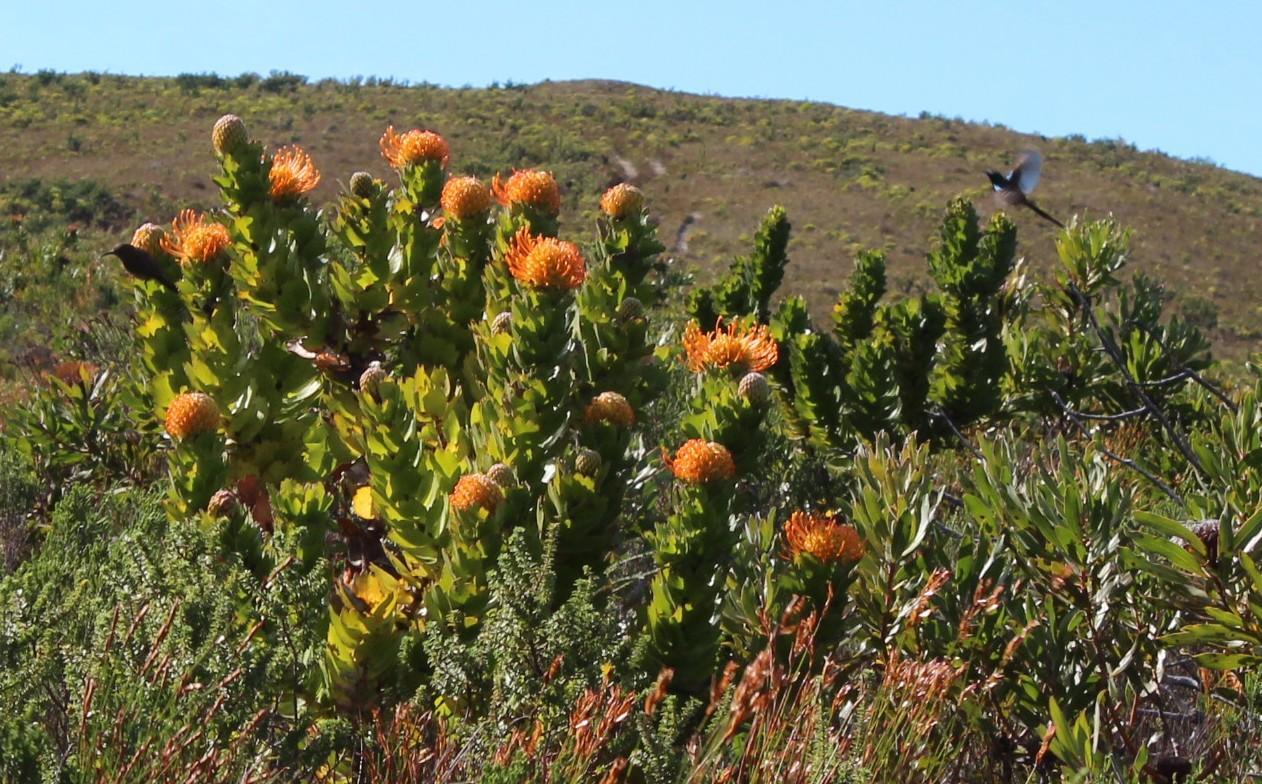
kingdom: Animalia
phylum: Chordata
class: Aves
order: Passeriformes
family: Nectariniidae
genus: Anthobaphes
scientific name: Anthobaphes violacea
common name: Orange-breasted sunbird
